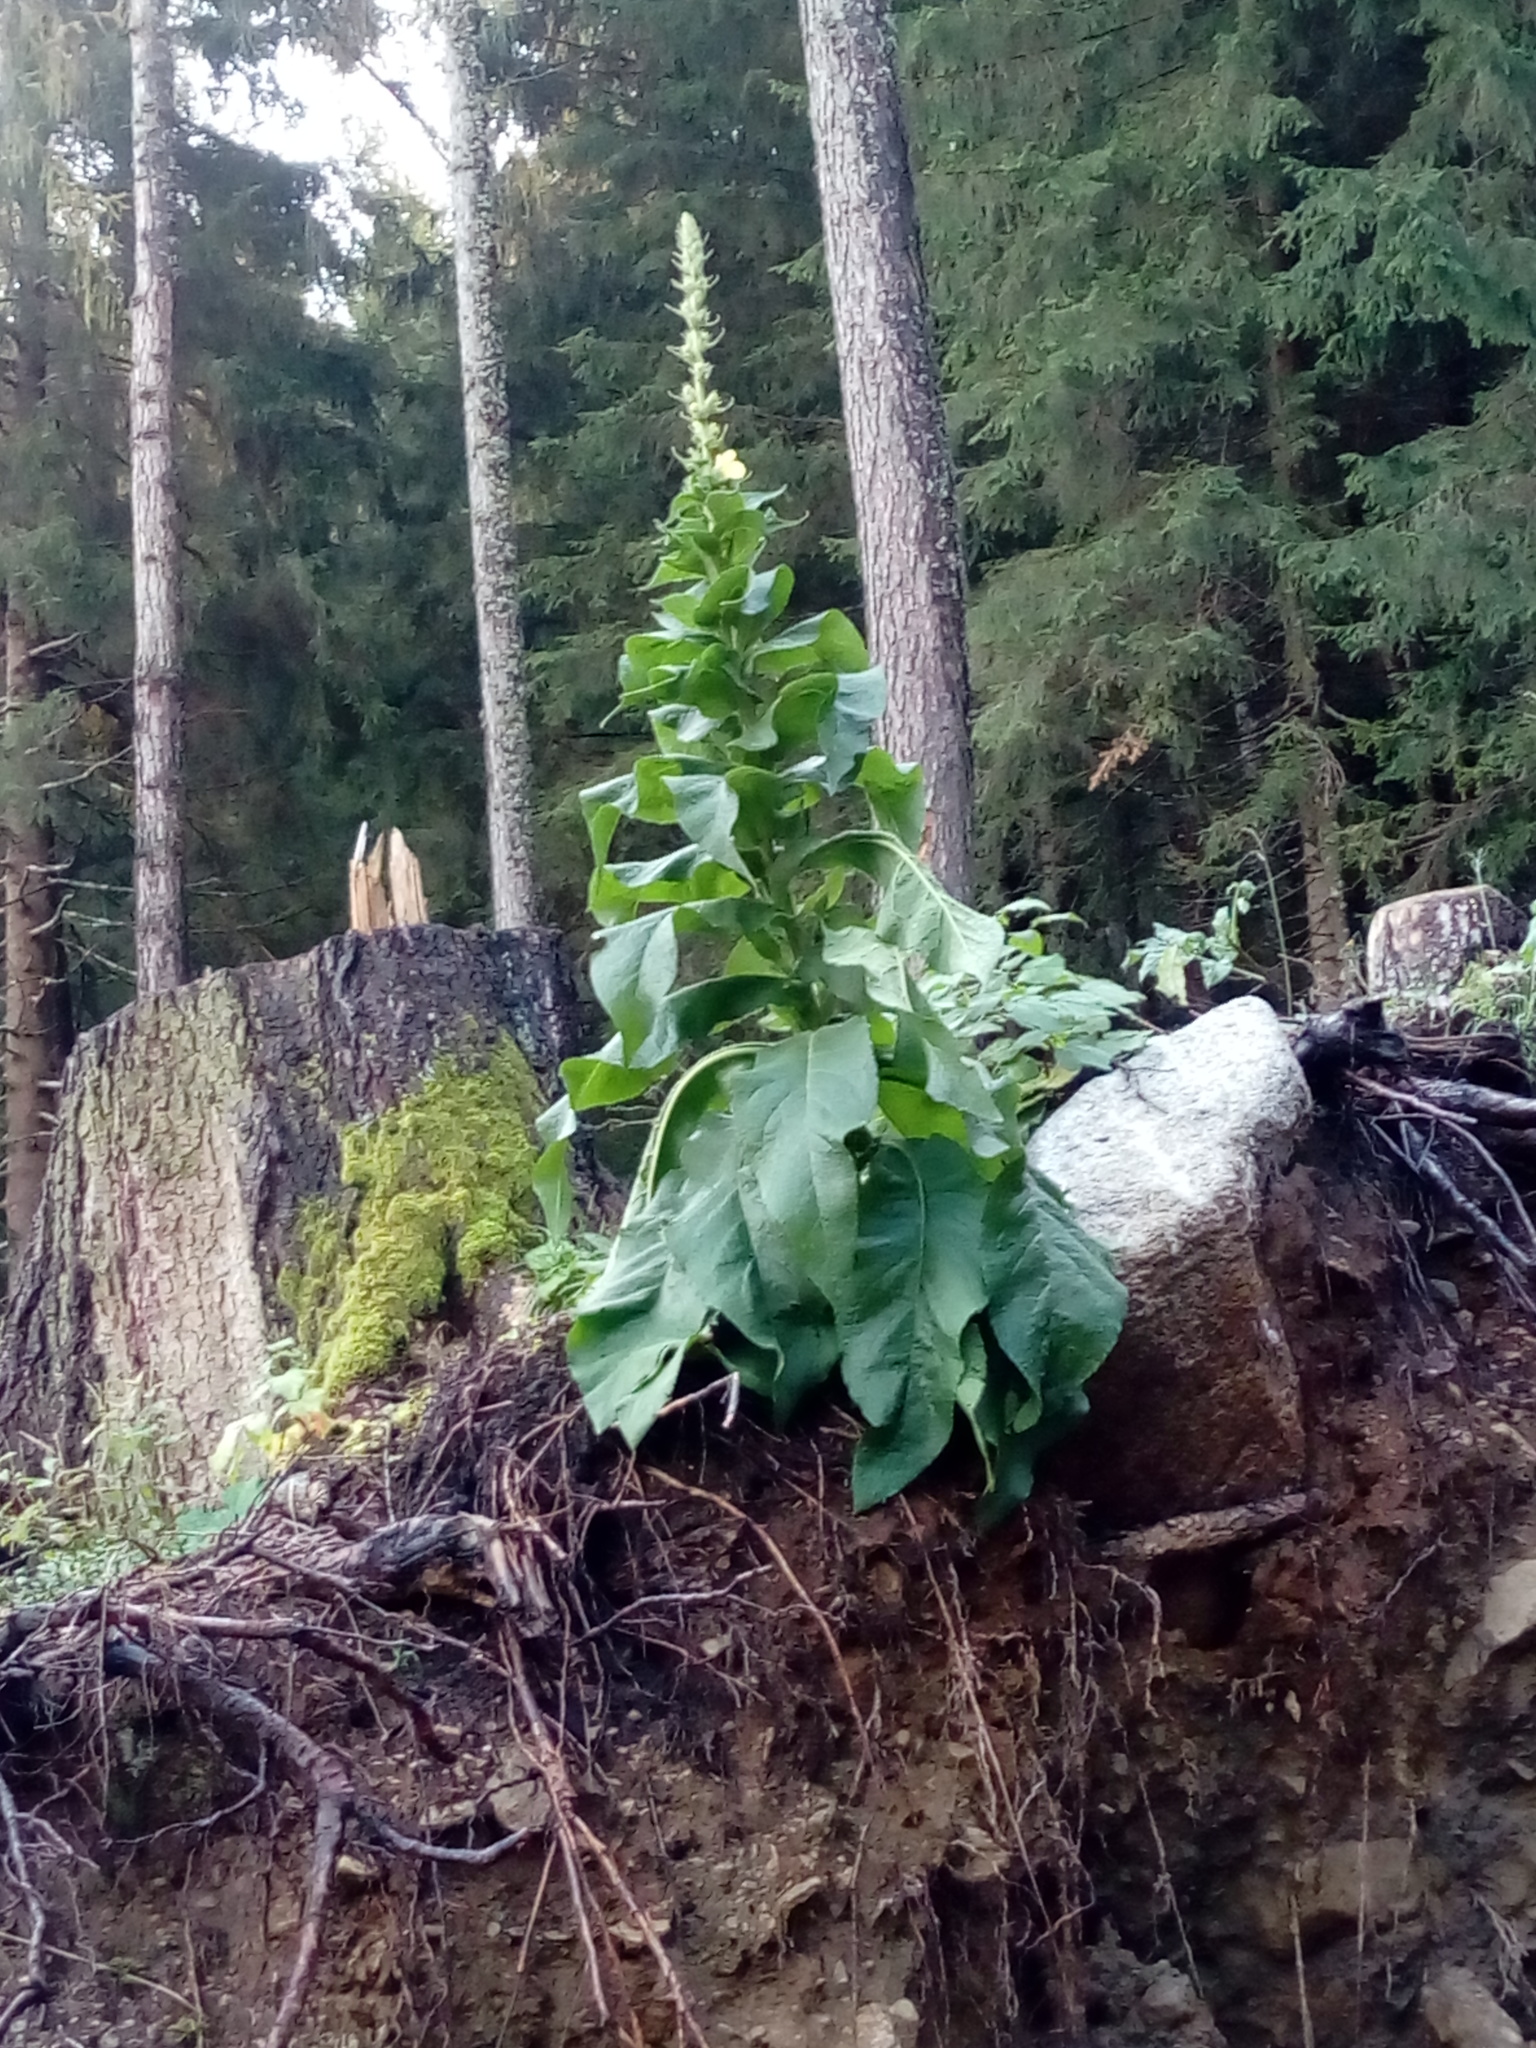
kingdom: Plantae
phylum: Tracheophyta
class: Magnoliopsida
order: Lamiales
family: Scrophulariaceae
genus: Verbascum
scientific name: Verbascum densiflorum
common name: Dense-flowered mullein
